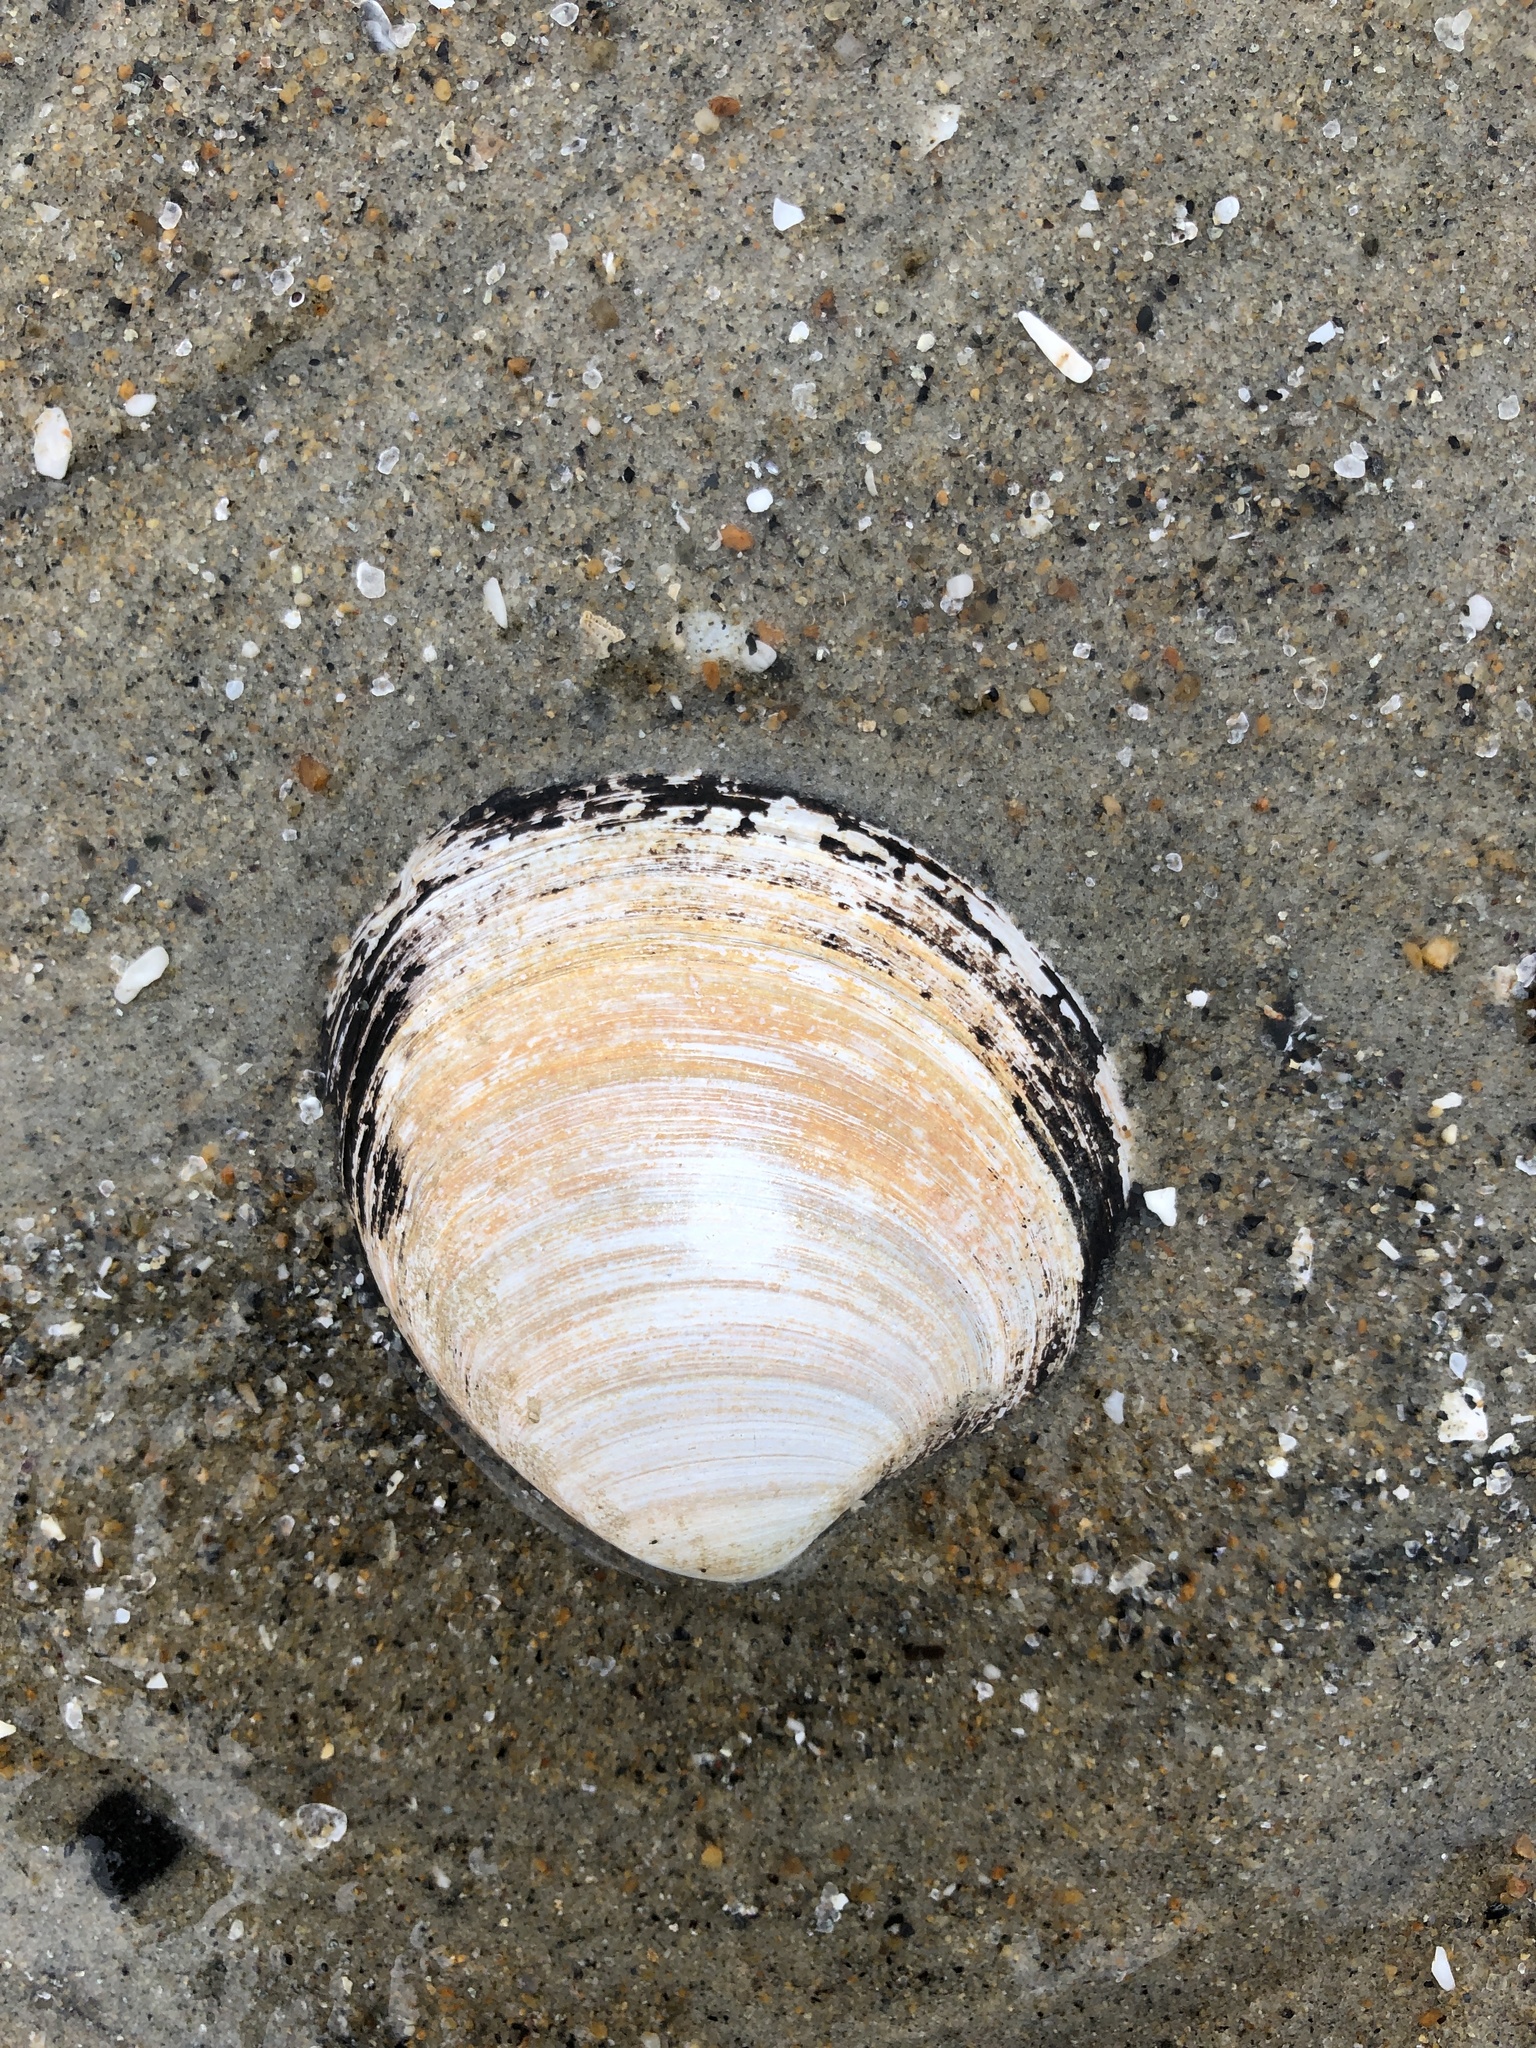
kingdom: Animalia
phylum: Mollusca
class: Bivalvia
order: Venerida
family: Arcticidae
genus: Arctica
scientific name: Arctica islandica
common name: Icelandic cyprine
